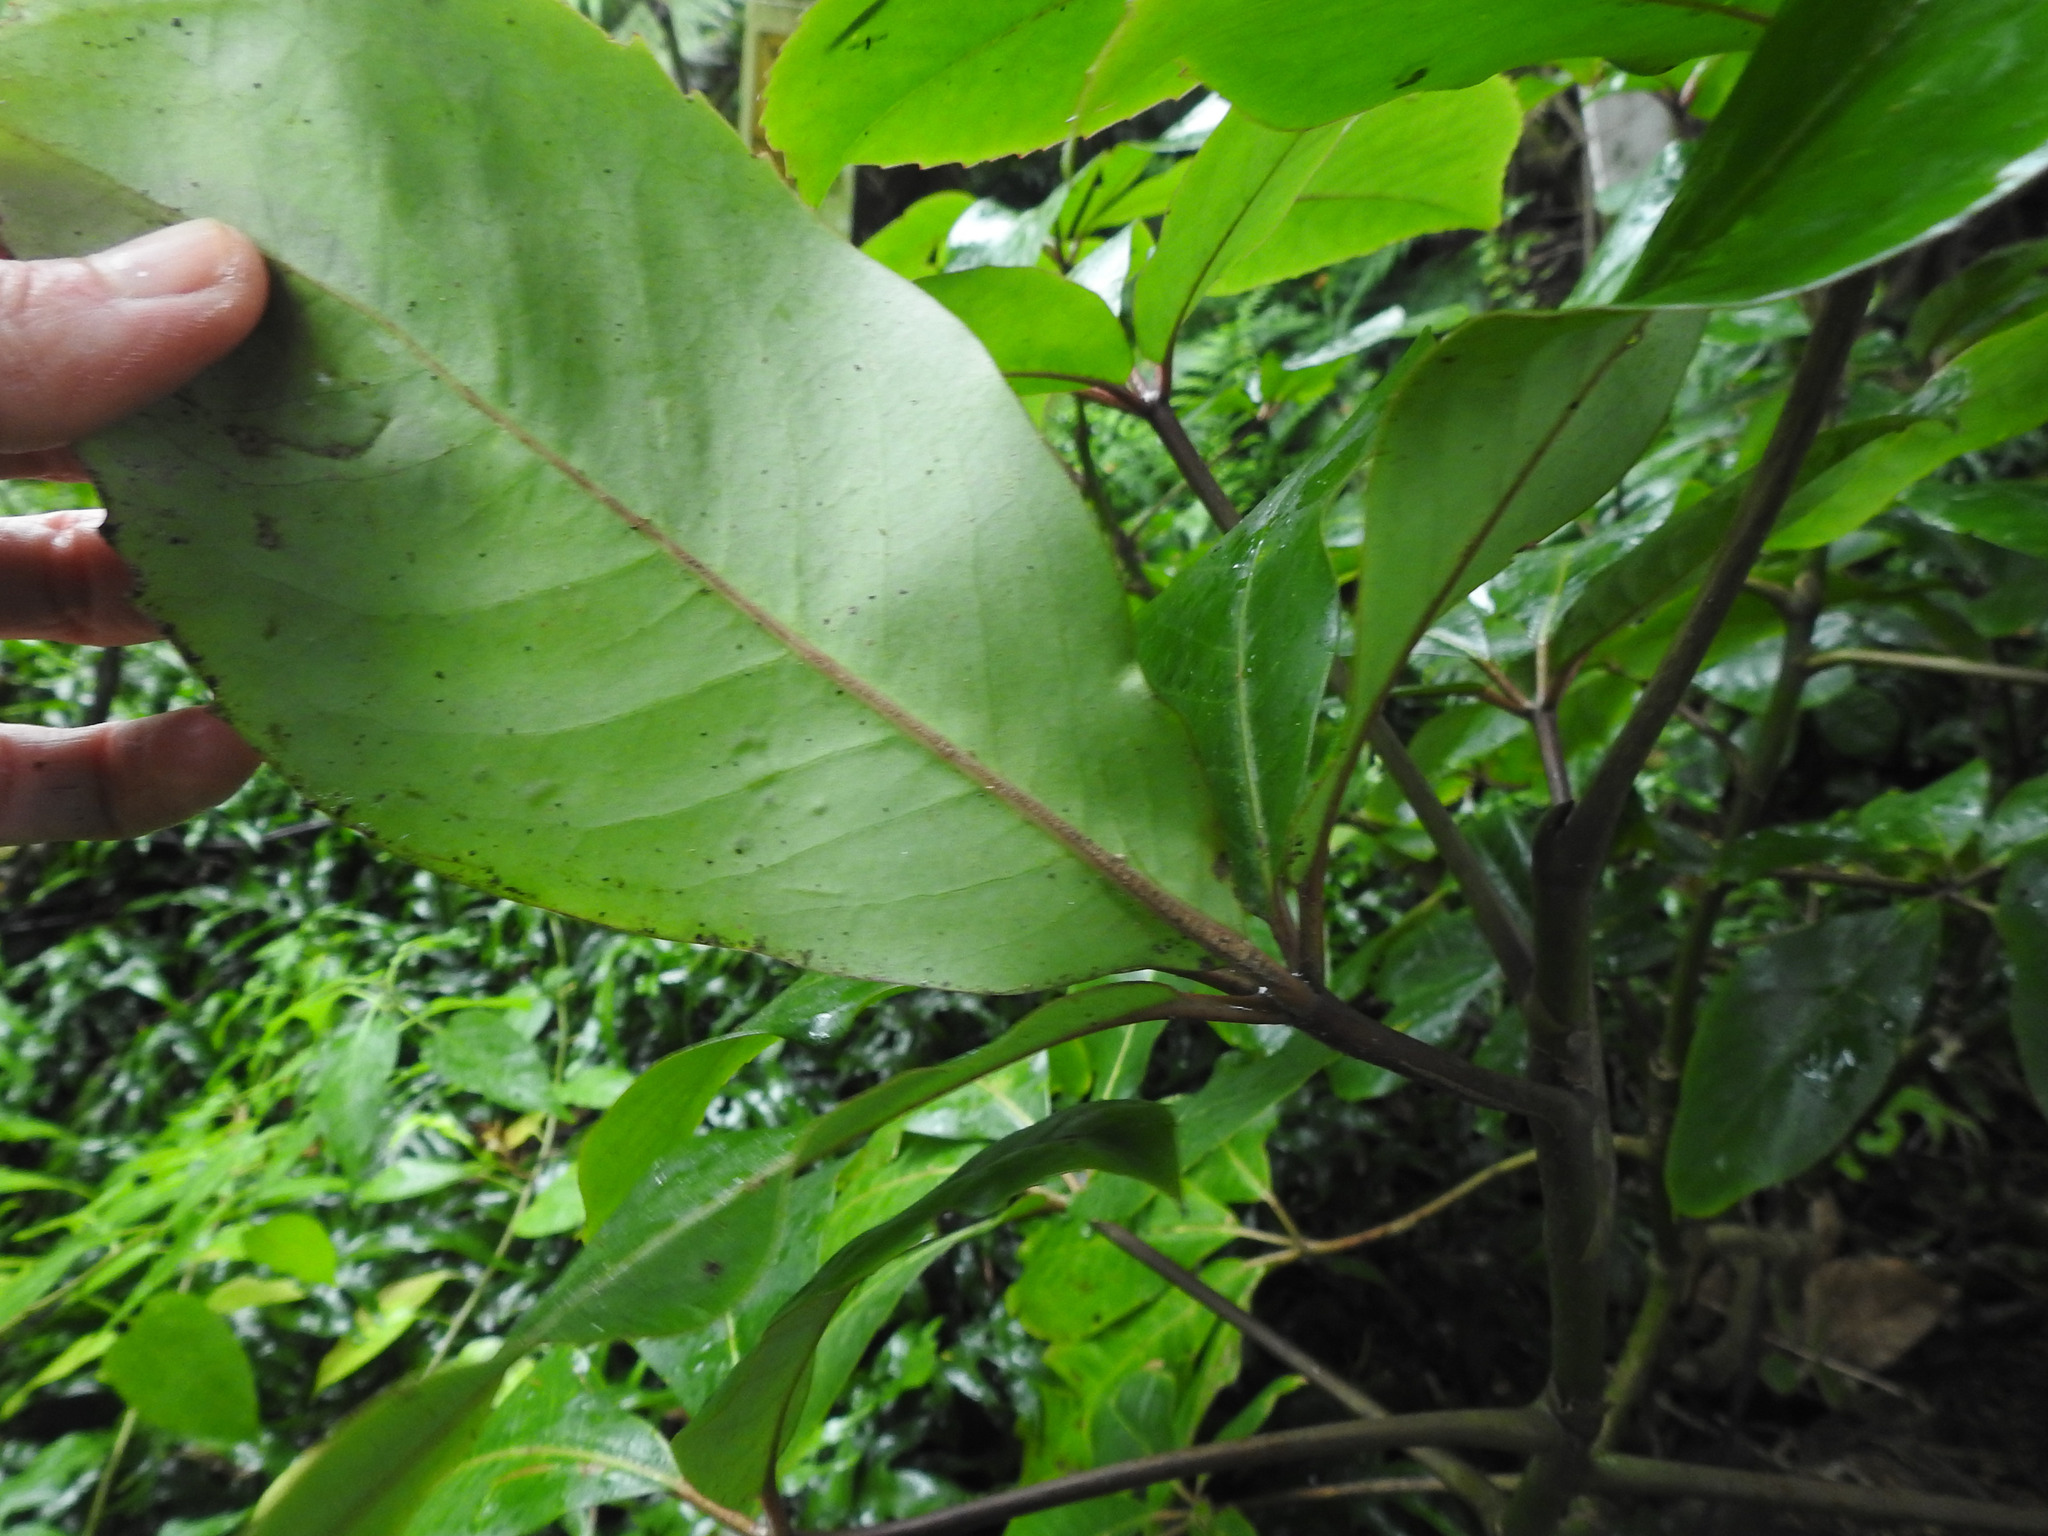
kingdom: Plantae
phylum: Tracheophyta
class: Magnoliopsida
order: Apiales
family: Araliaceae
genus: Neopanax
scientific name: Neopanax laetus
